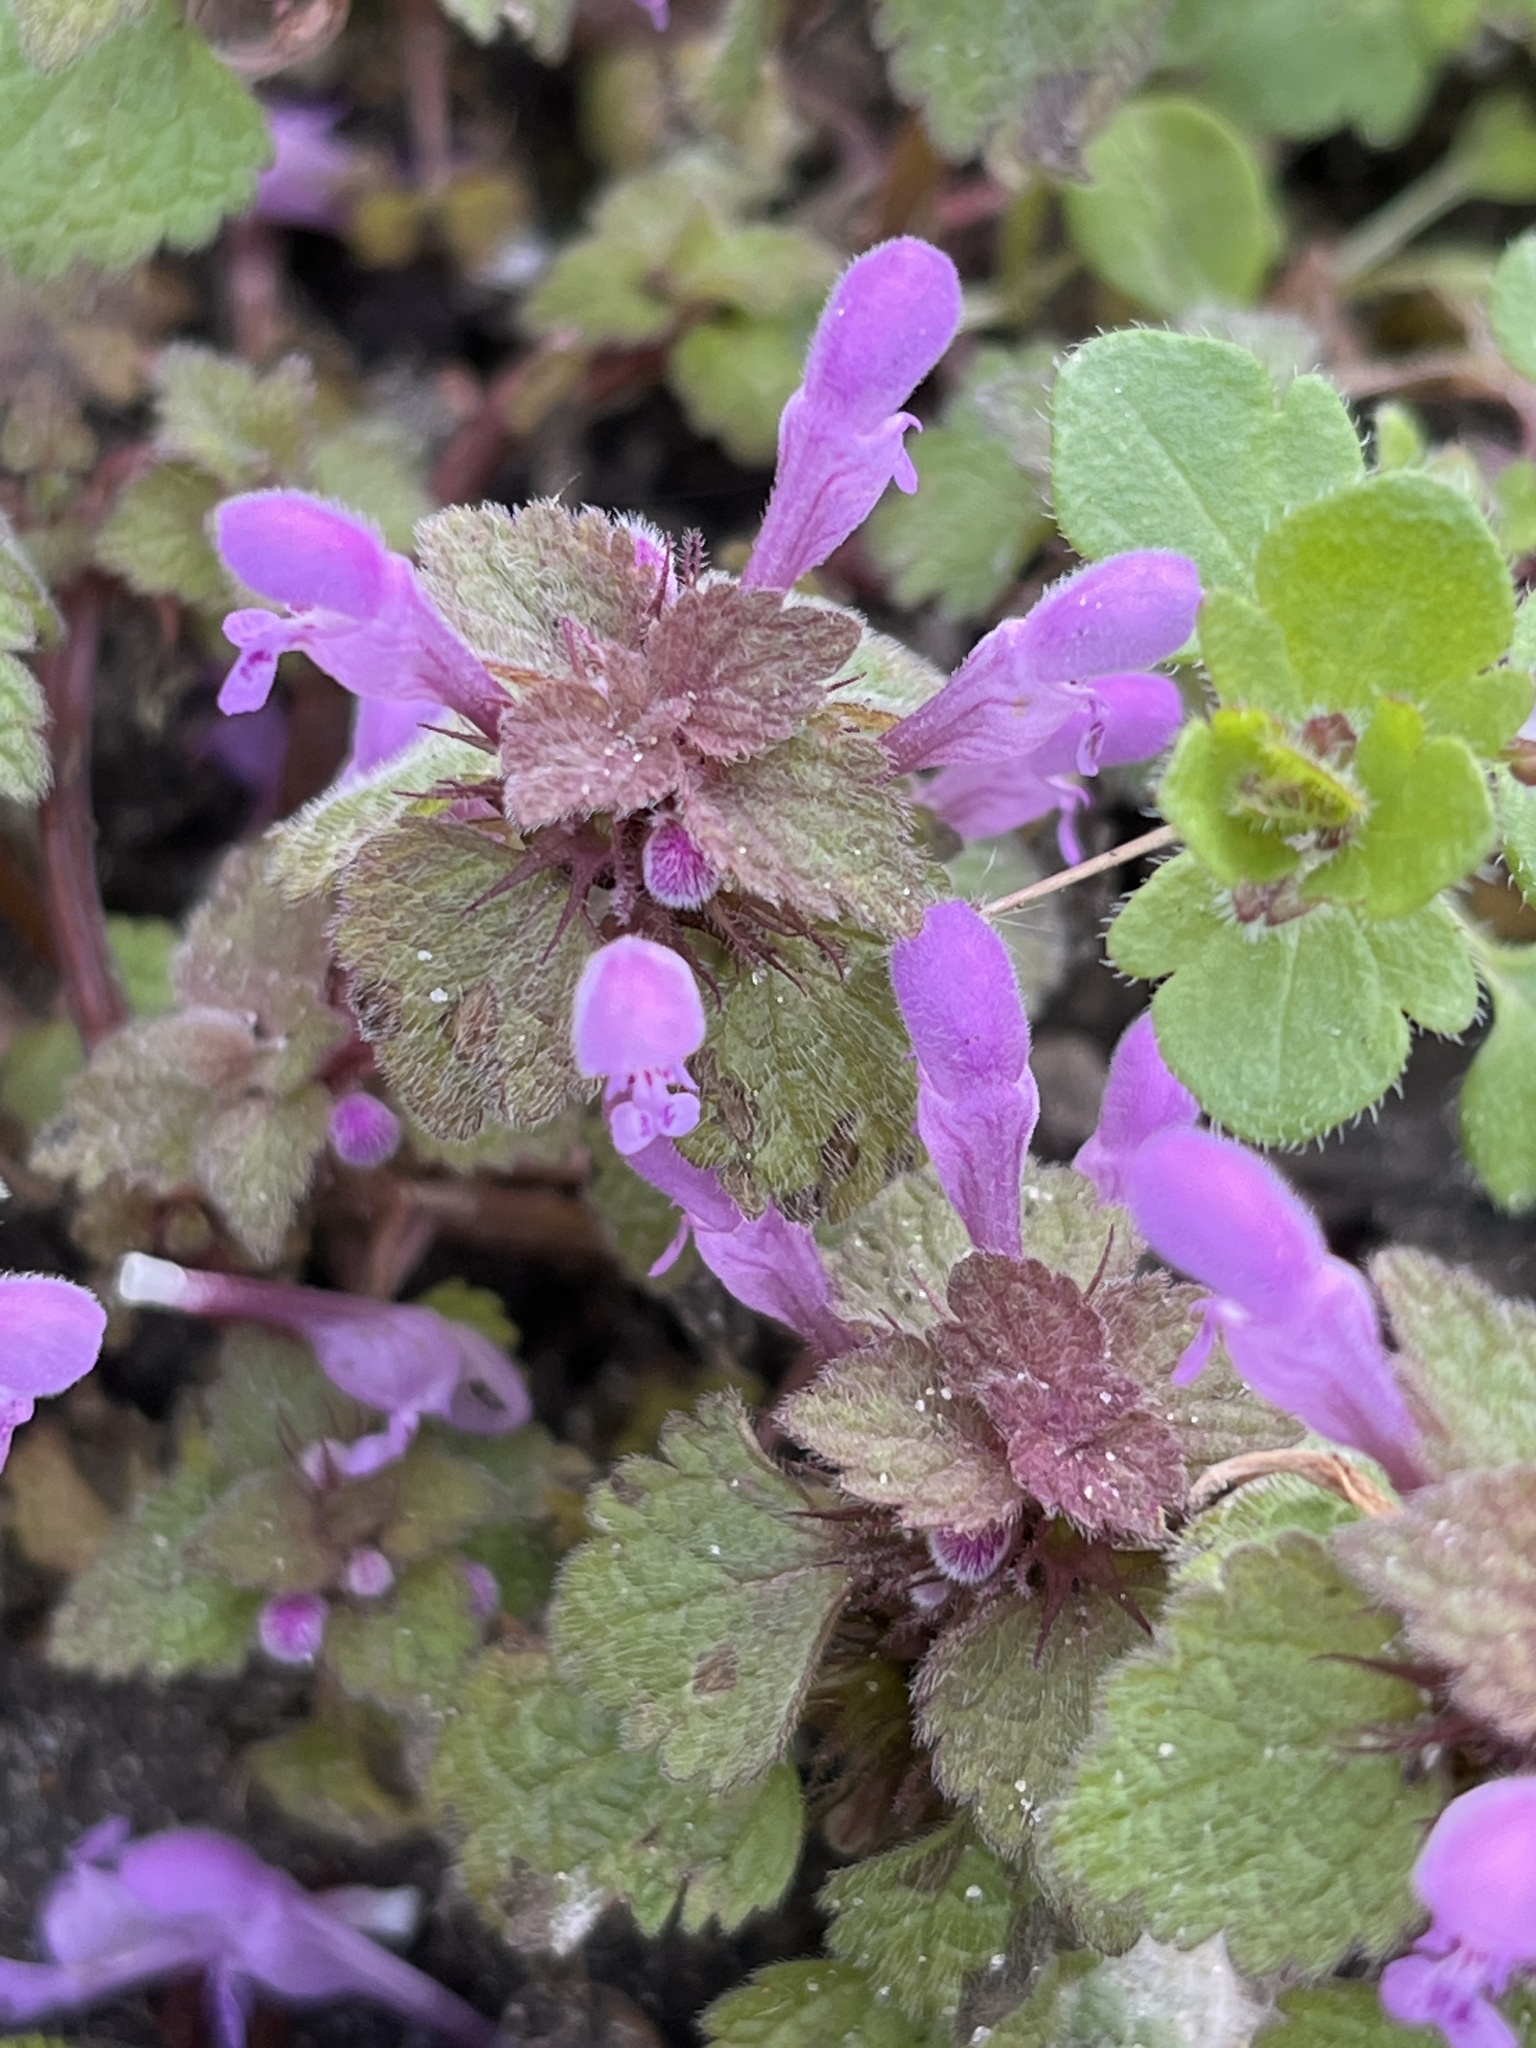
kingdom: Plantae
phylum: Tracheophyta
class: Magnoliopsida
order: Lamiales
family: Lamiaceae
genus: Lamium
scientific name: Lamium purpureum
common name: Red dead-nettle
